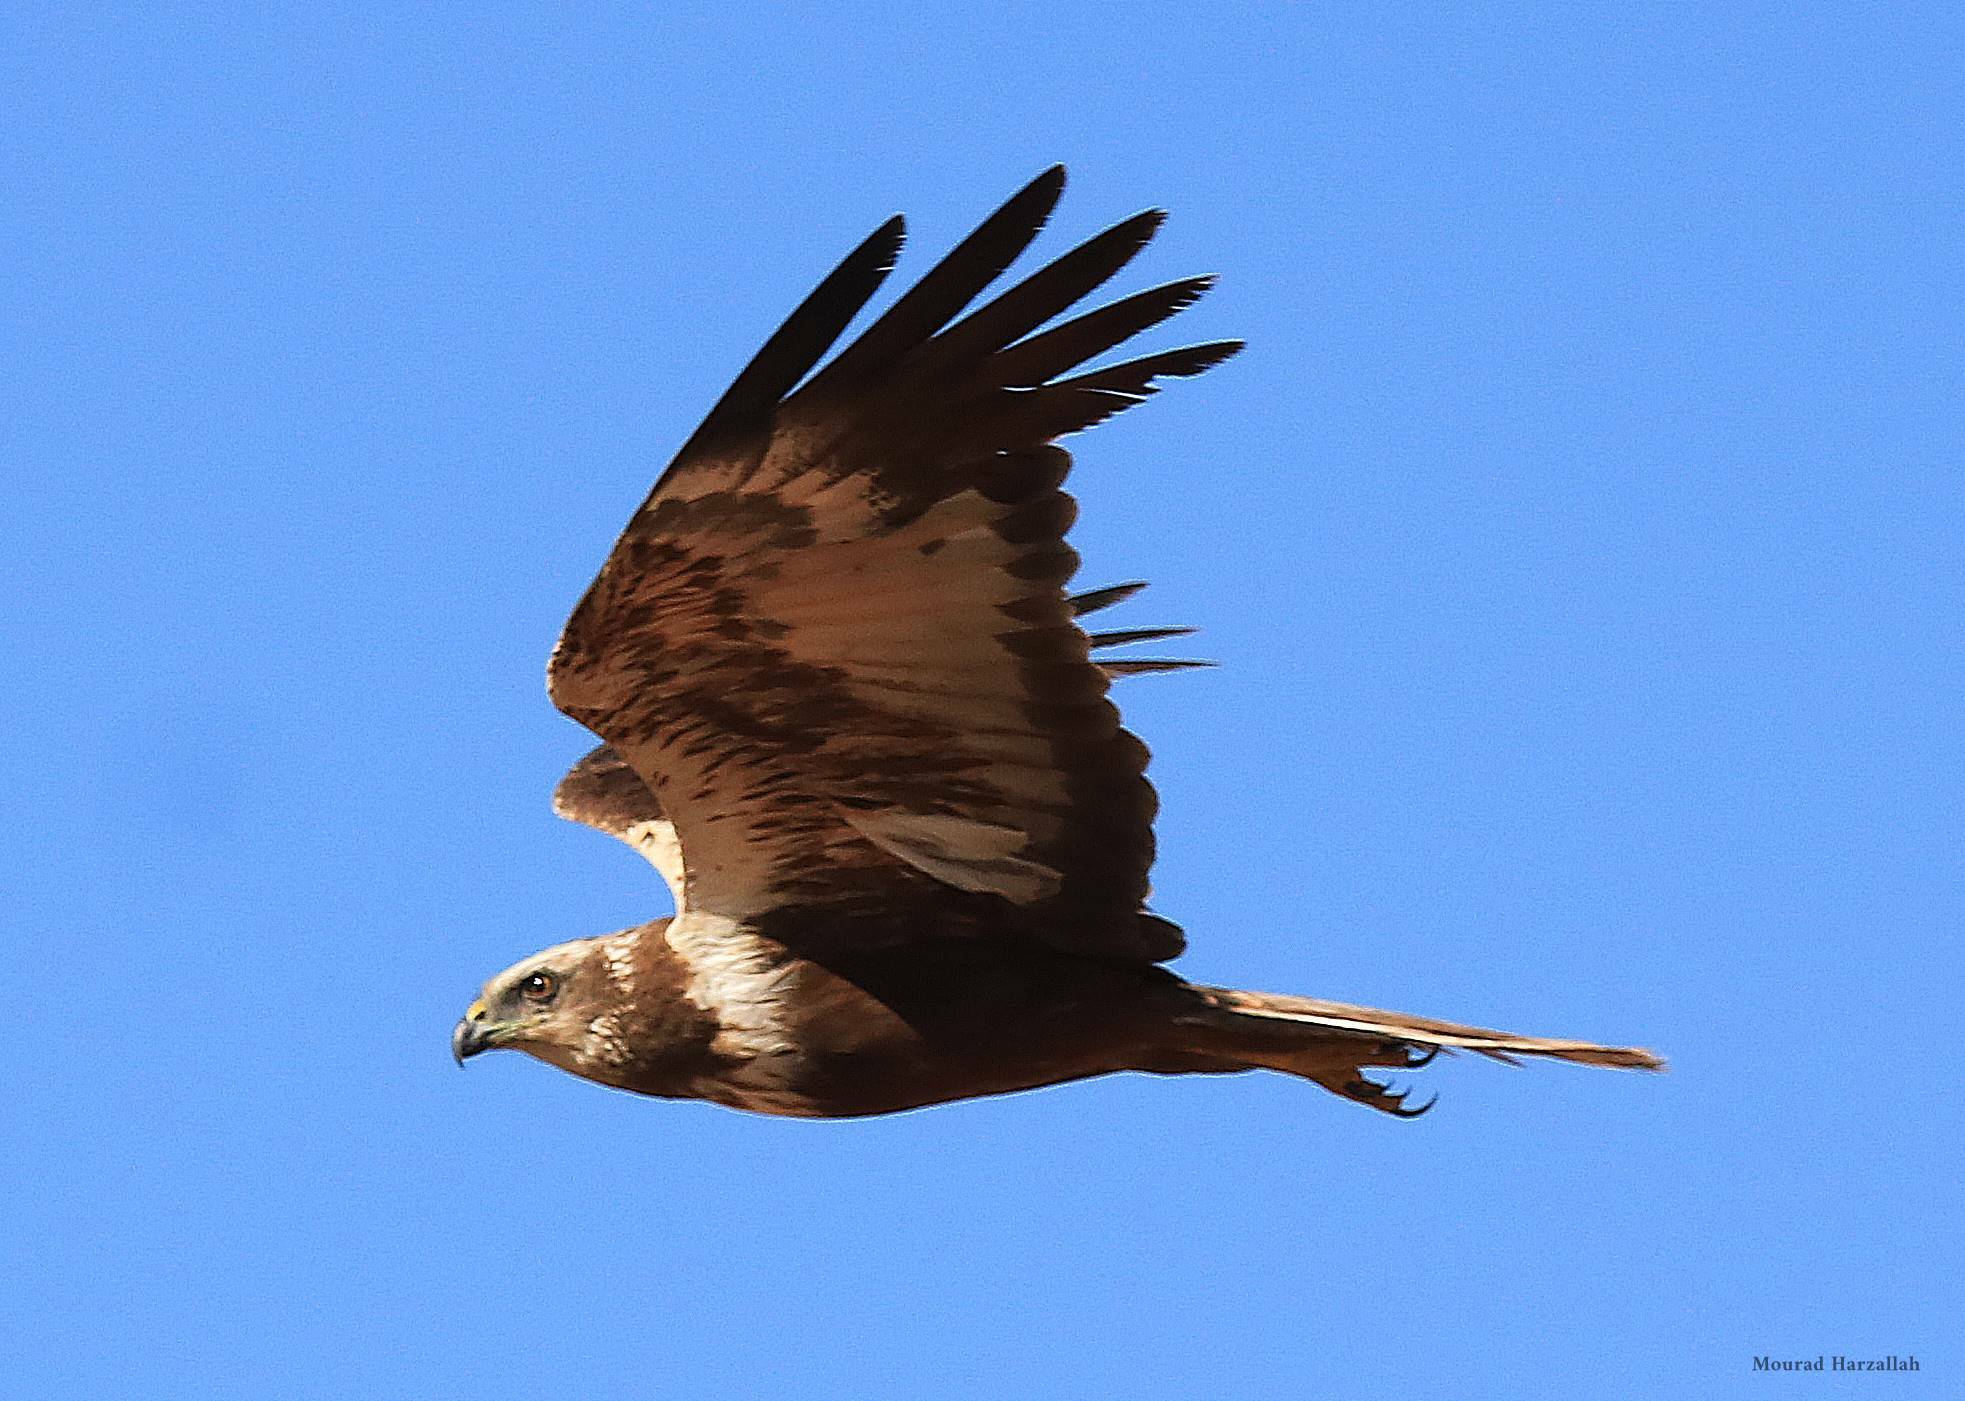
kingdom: Animalia
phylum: Chordata
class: Aves
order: Accipitriformes
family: Accipitridae
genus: Circus
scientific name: Circus aeruginosus
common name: Western marsh harrier
